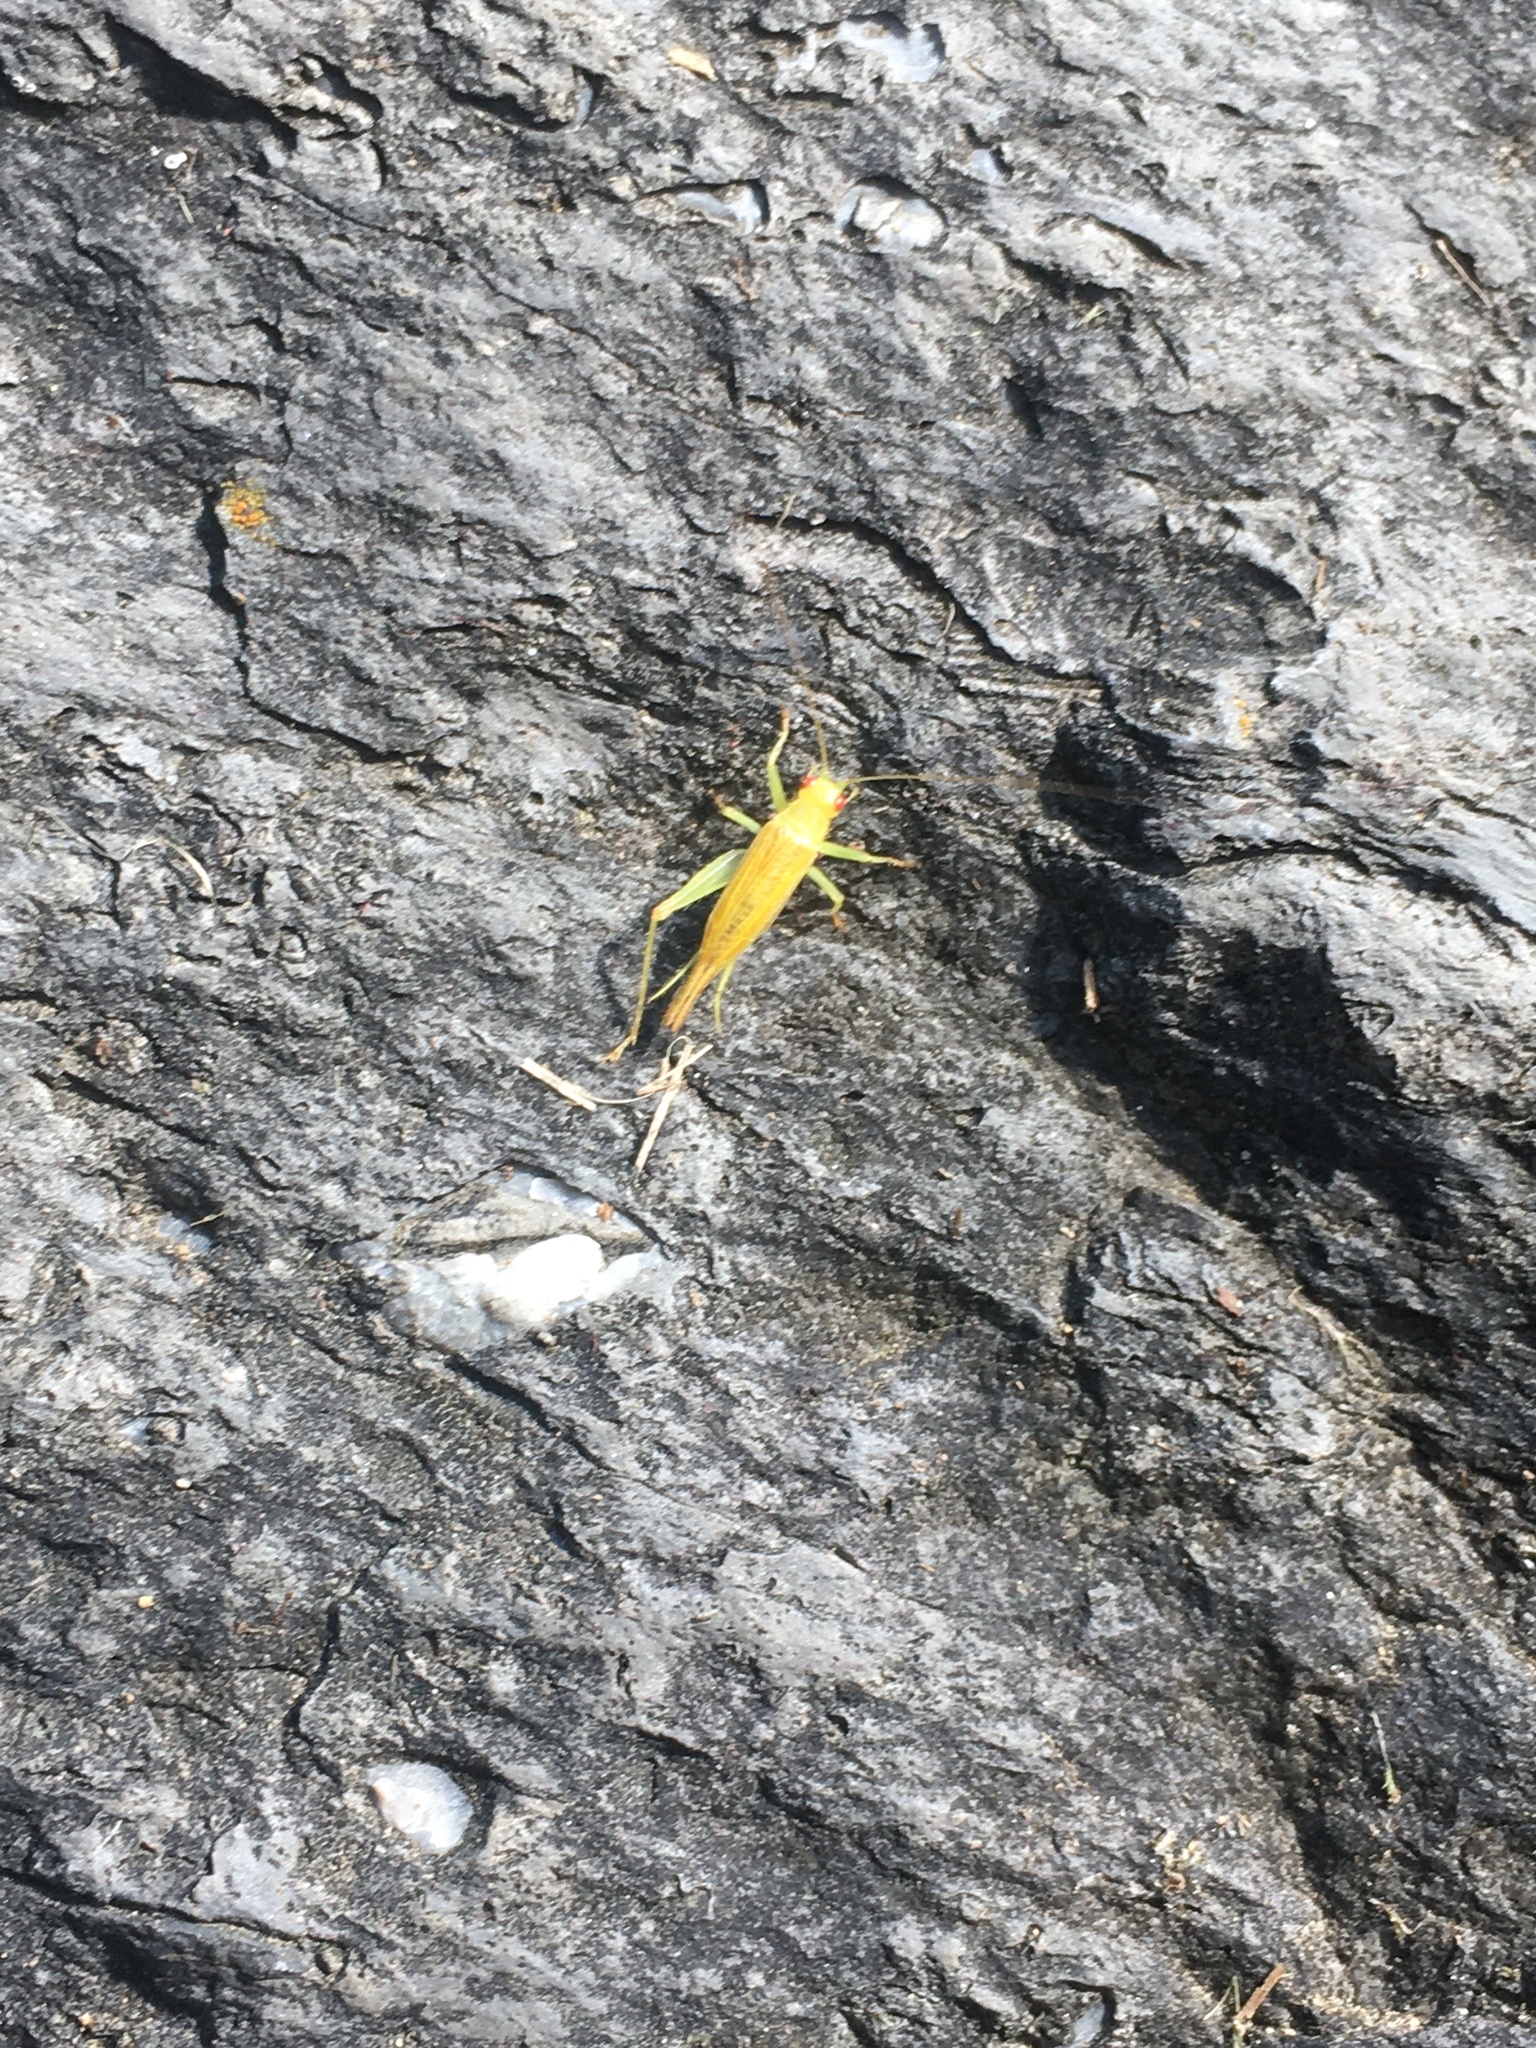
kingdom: Animalia
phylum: Arthropoda
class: Insecta
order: Orthoptera
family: Trigonidiidae
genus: Cyrtoxipha
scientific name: Cyrtoxipha columbiana
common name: Columbian trig
